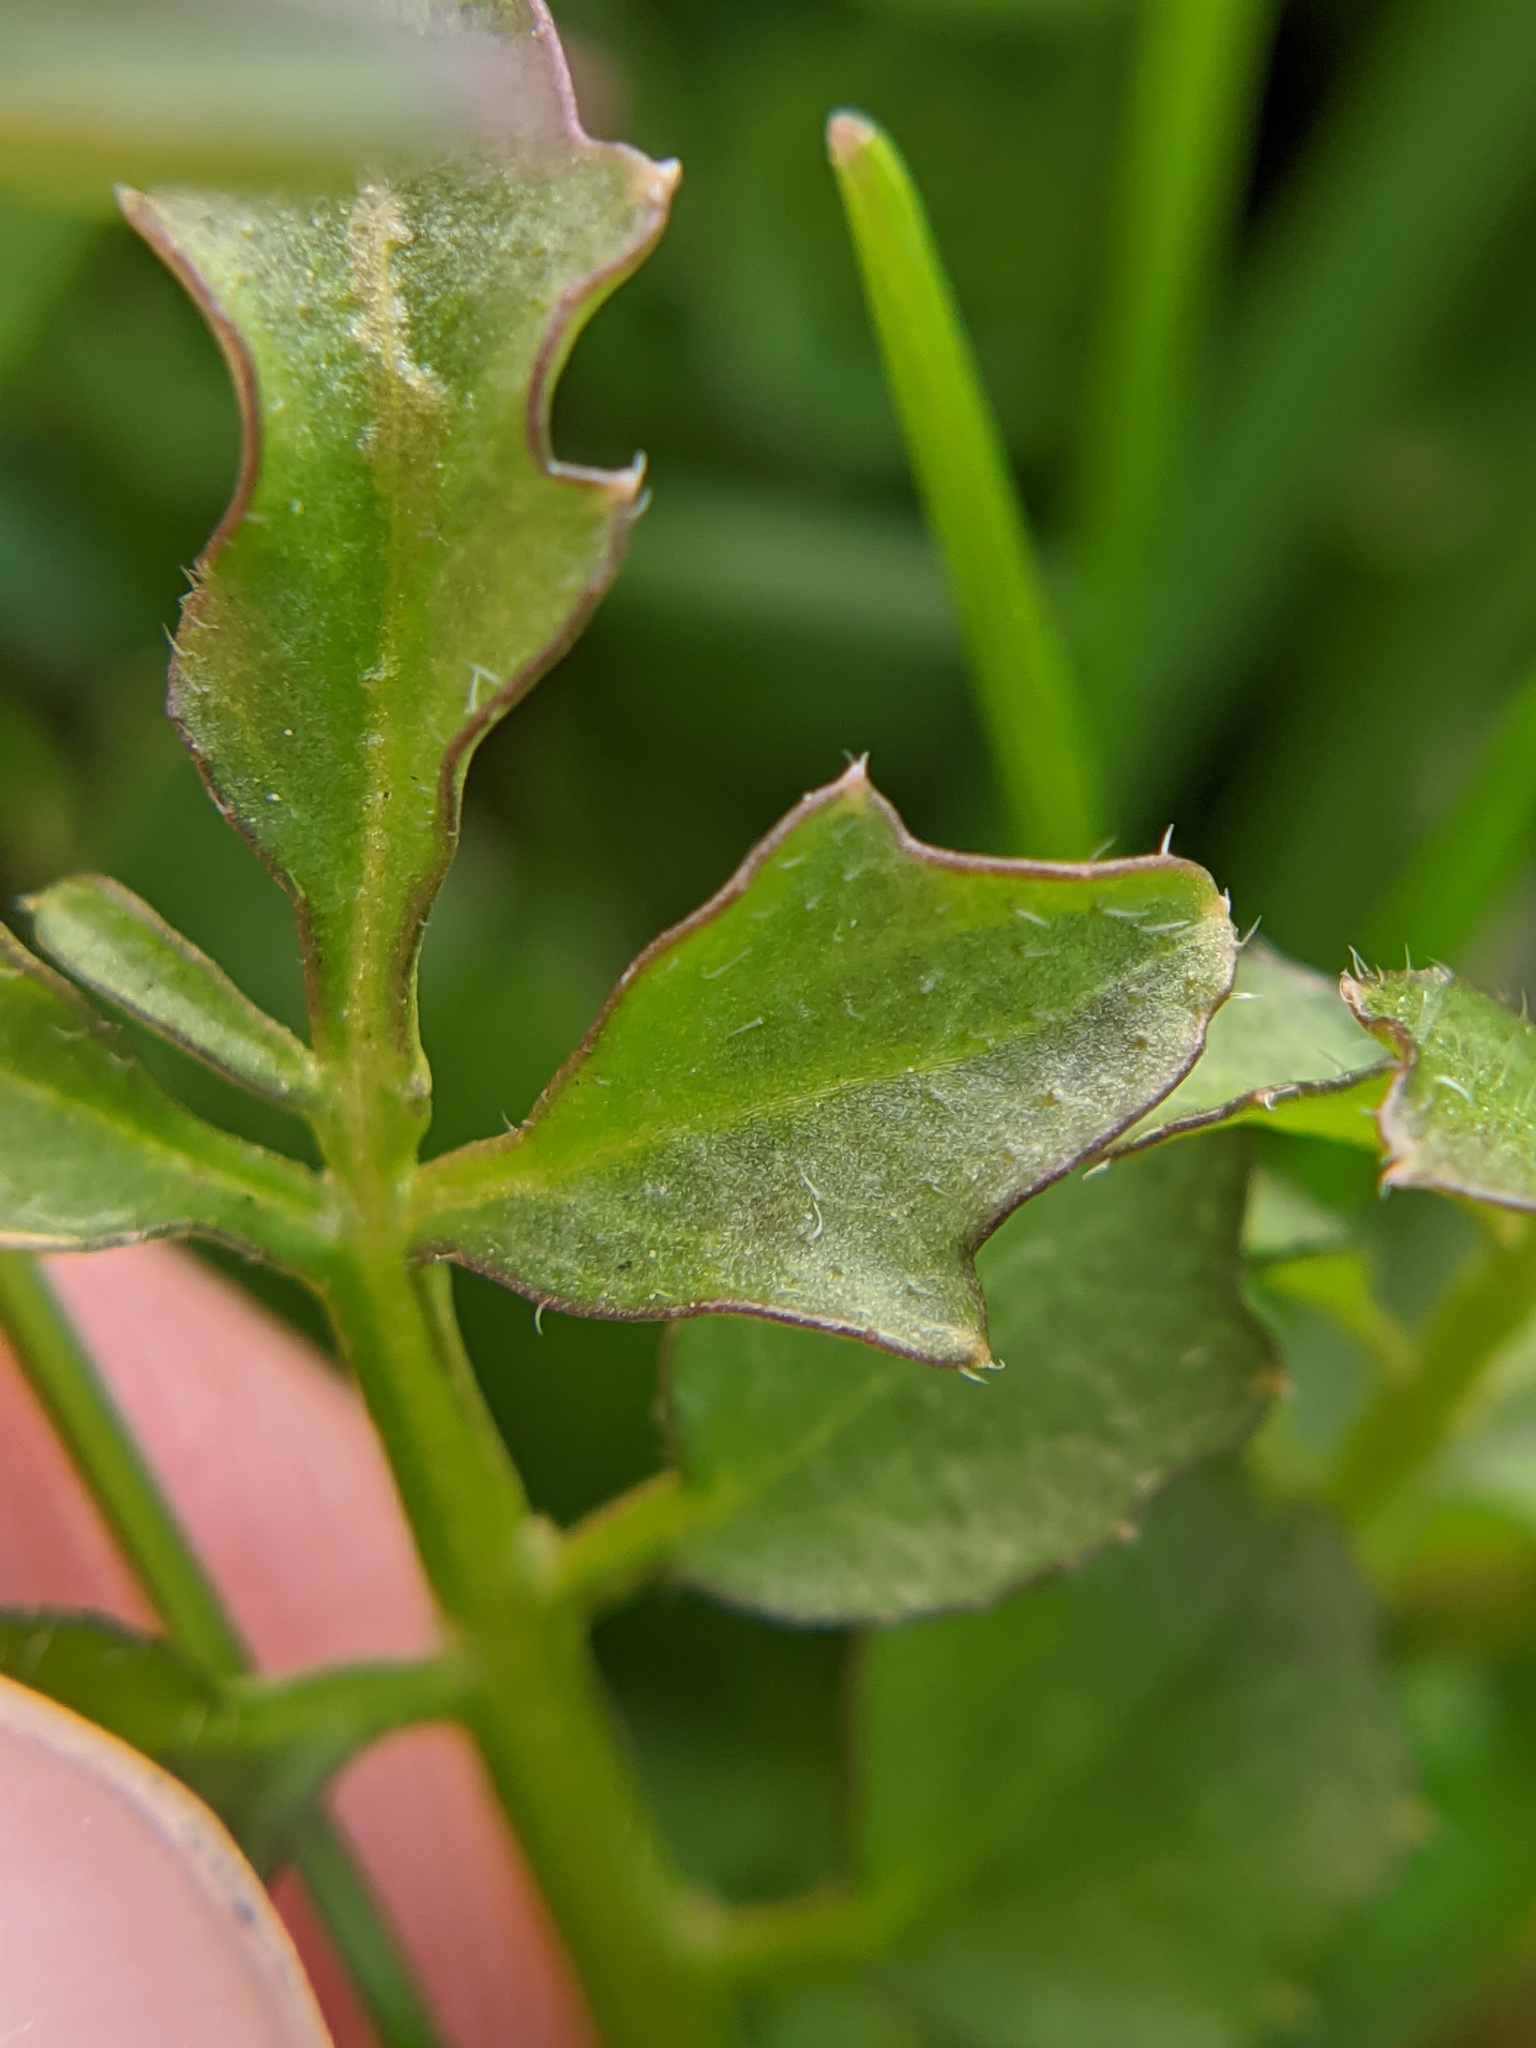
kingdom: Plantae
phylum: Tracheophyta
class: Magnoliopsida
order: Brassicales
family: Brassicaceae
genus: Cardamine
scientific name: Cardamine hirsuta
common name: Hairy bittercress
